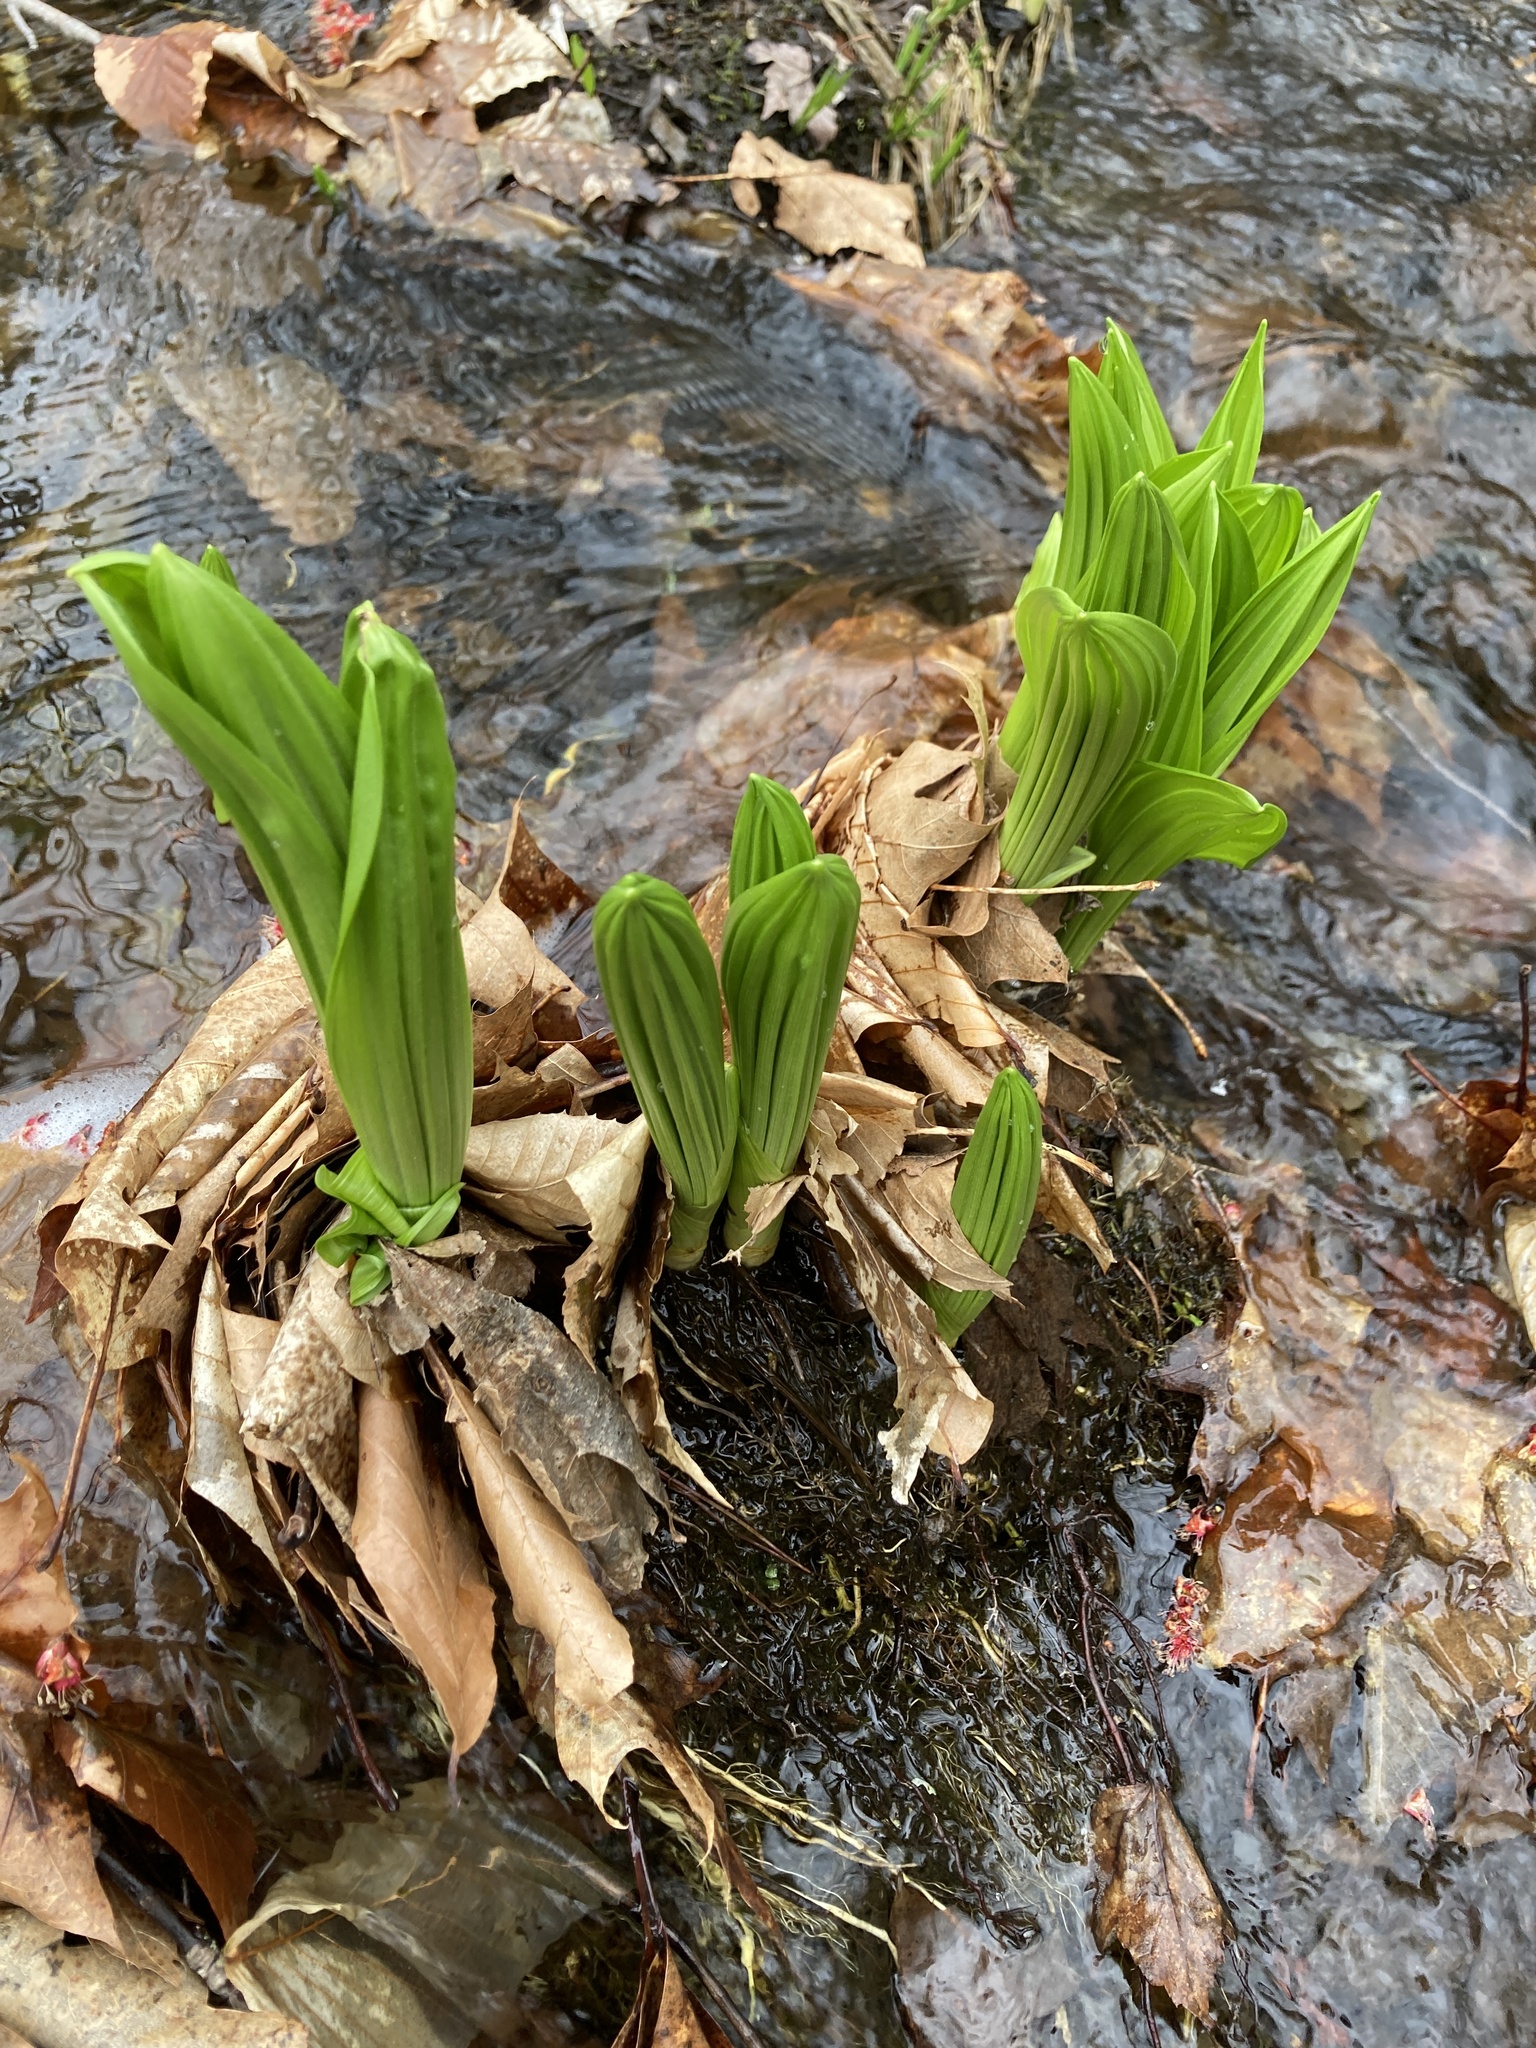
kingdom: Plantae
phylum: Tracheophyta
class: Liliopsida
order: Liliales
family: Melanthiaceae
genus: Veratrum
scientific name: Veratrum viride
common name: American false hellebore
